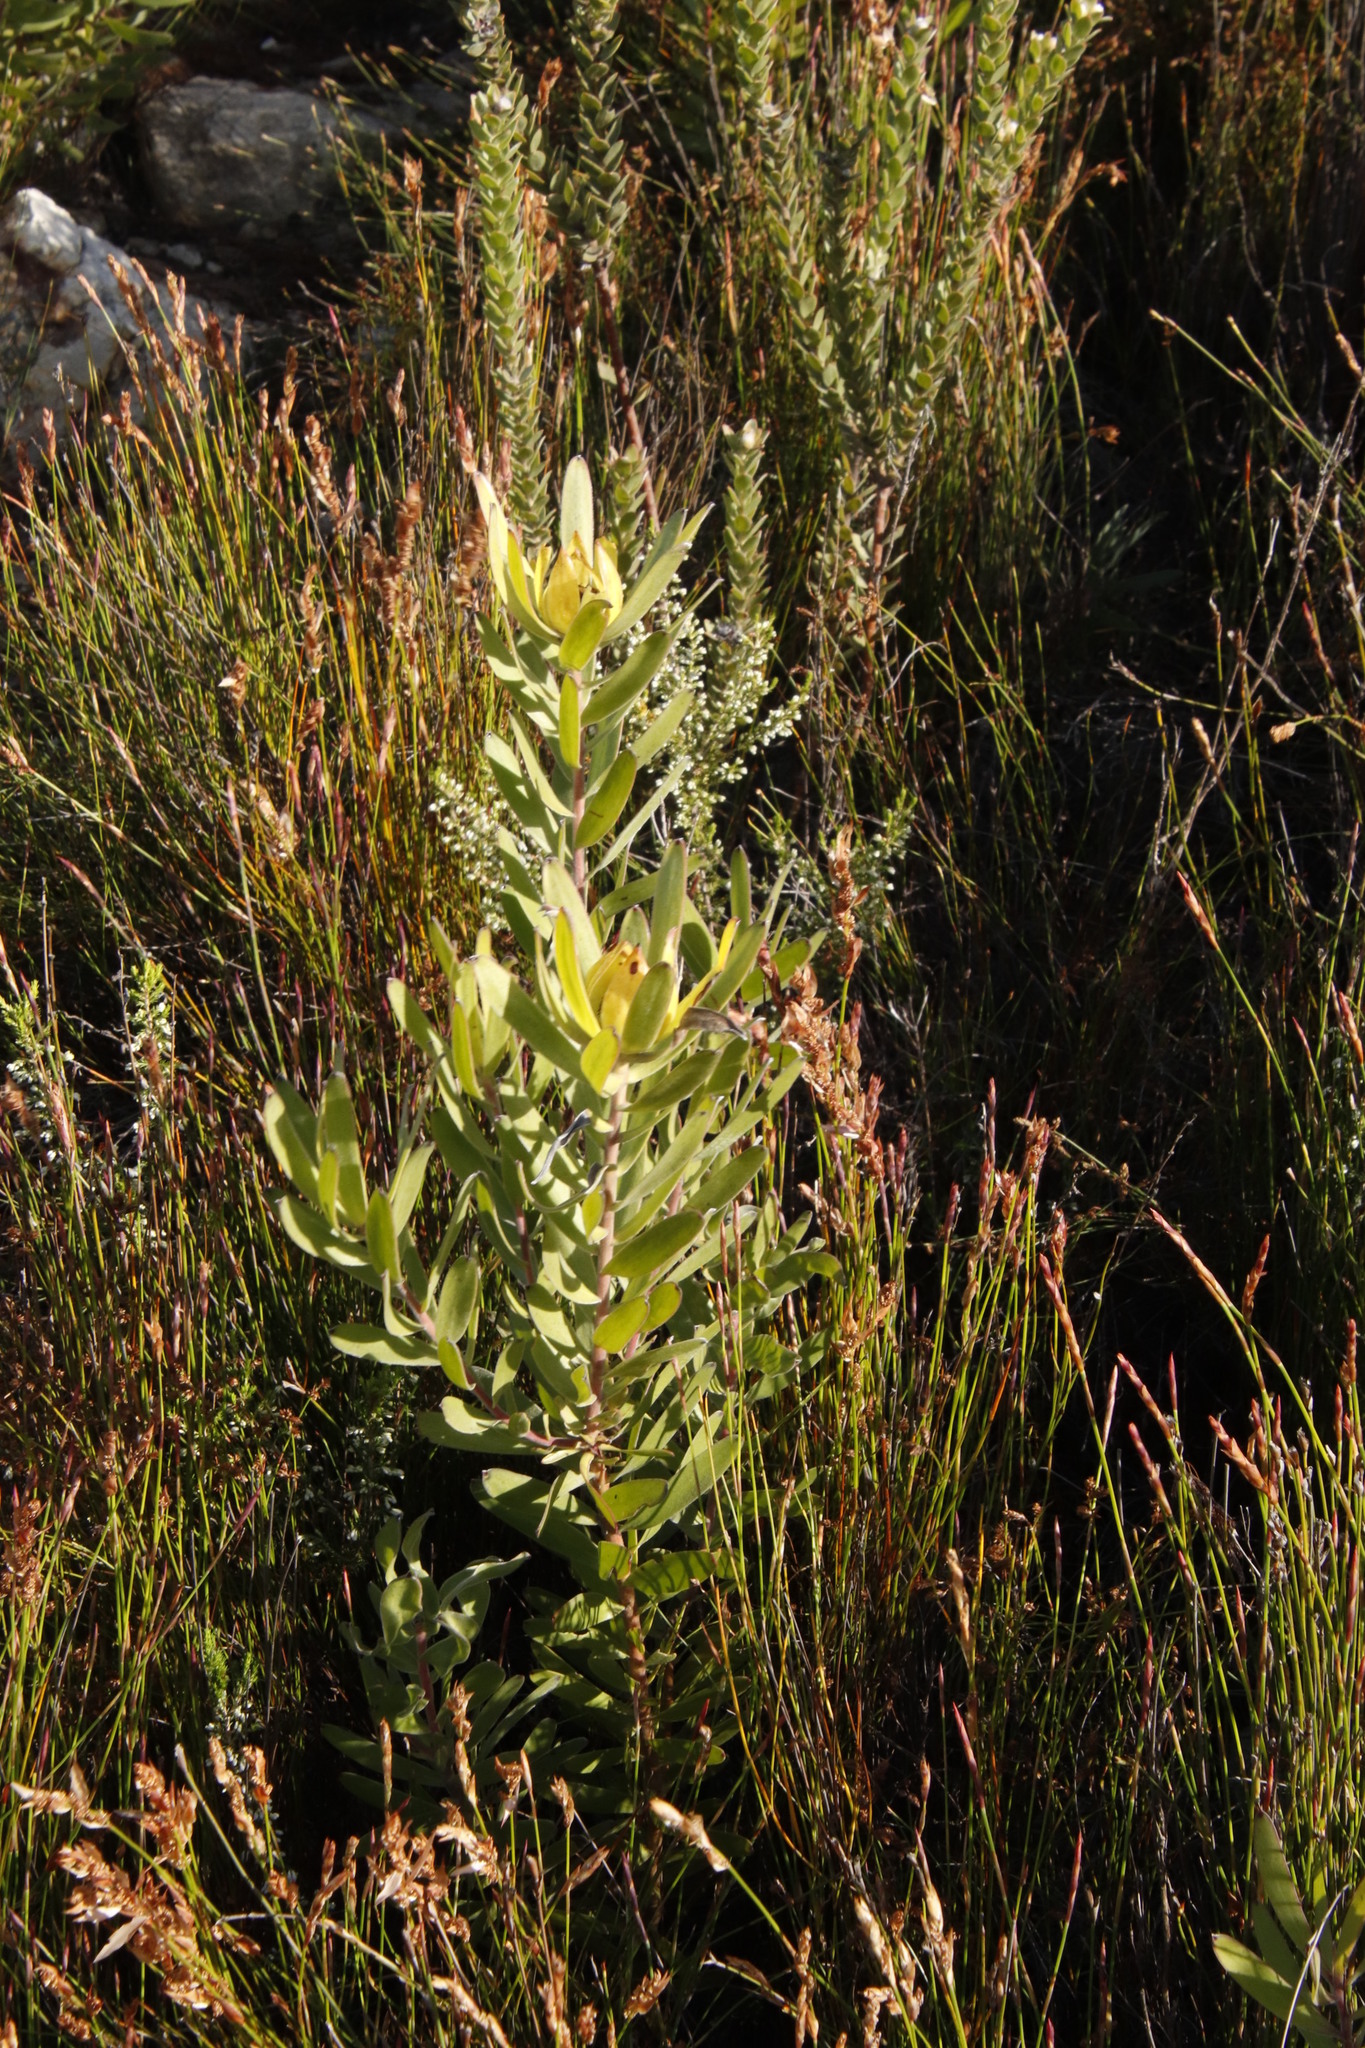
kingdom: Plantae
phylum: Tracheophyta
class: Magnoliopsida
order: Proteales
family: Proteaceae
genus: Leucadendron
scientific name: Leucadendron laureolum
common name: Golden sunshinebush
